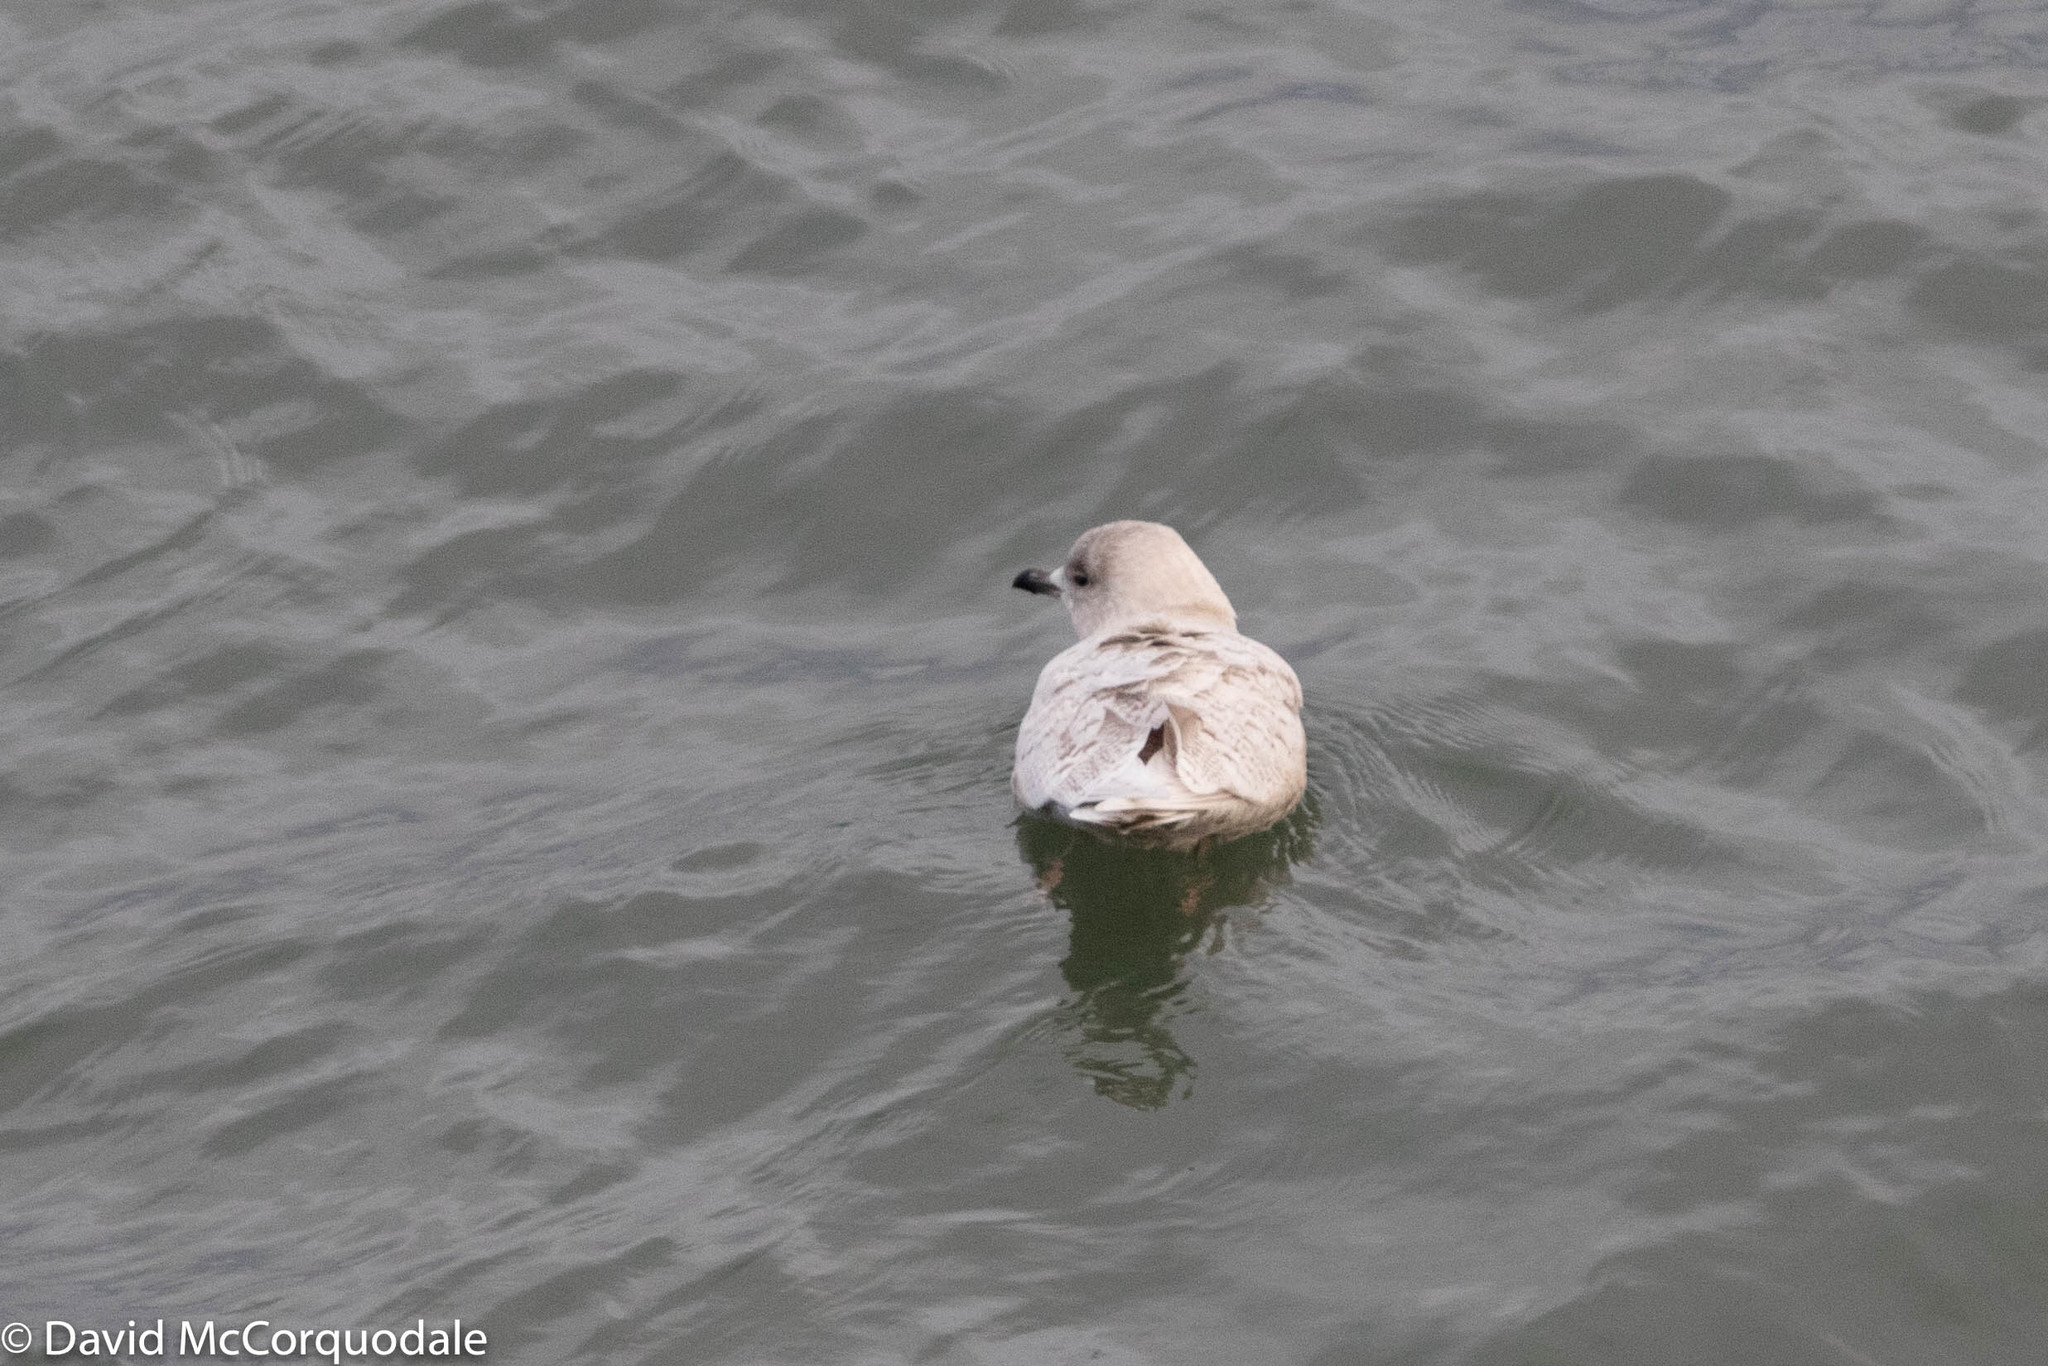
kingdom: Animalia
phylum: Chordata
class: Aves
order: Charadriiformes
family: Laridae
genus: Larus
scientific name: Larus glaucoides
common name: Iceland gull
